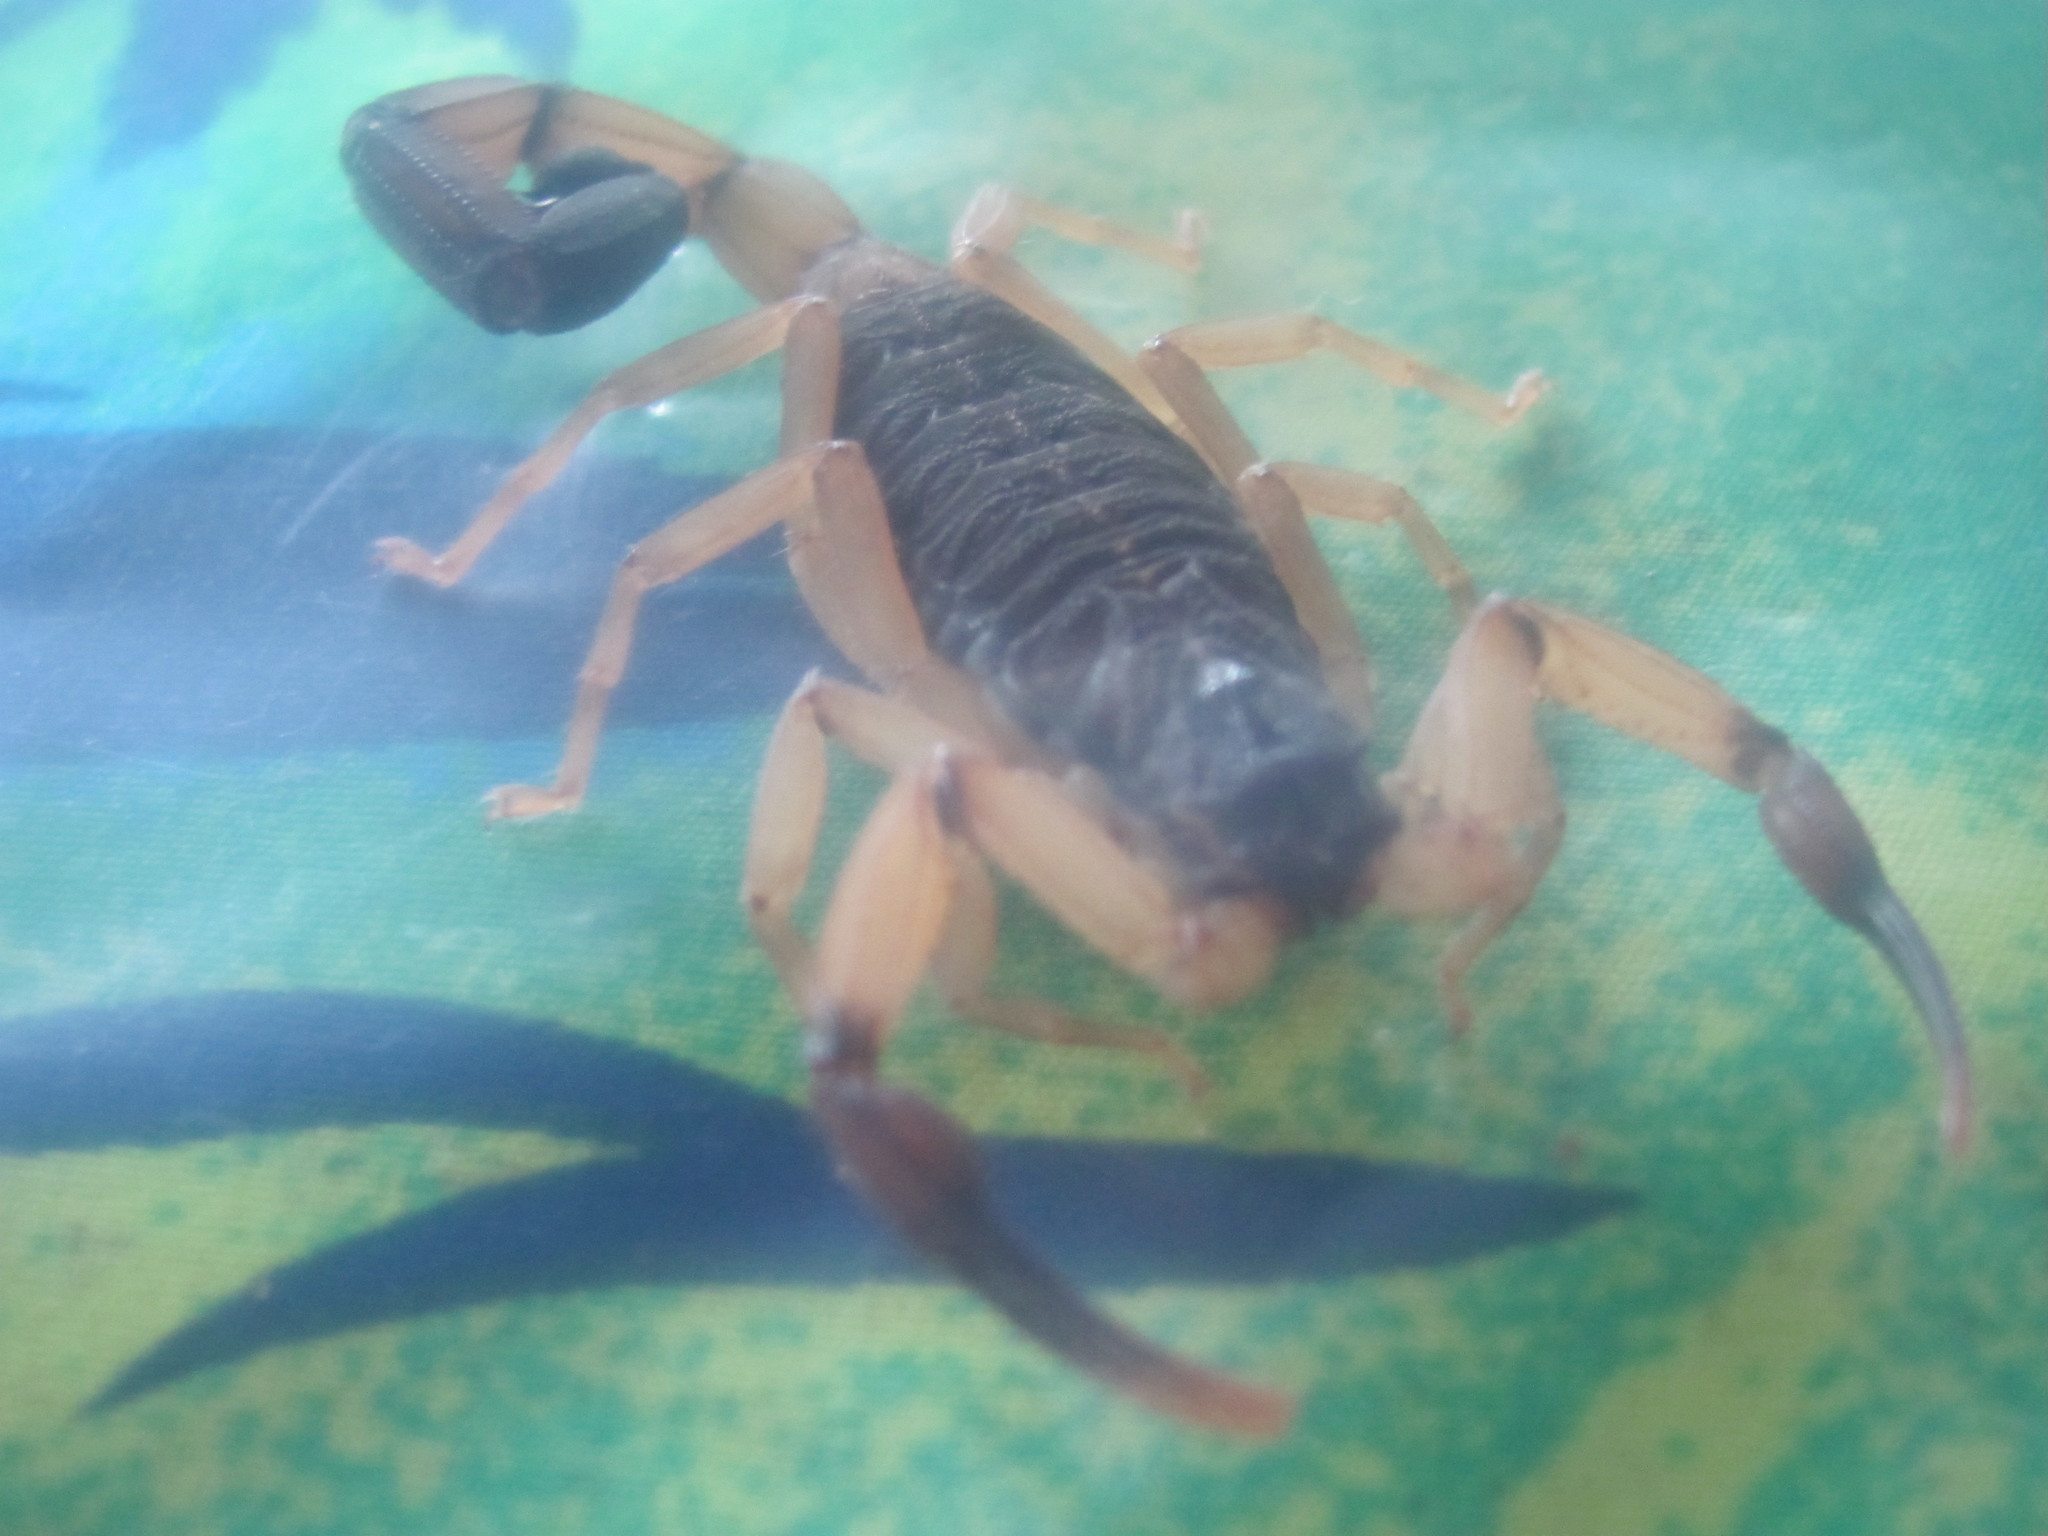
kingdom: Animalia
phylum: Arthropoda
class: Arachnida
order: Scorpiones
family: Buthidae
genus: Centruroides
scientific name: Centruroides bicolor
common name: Scorpions
